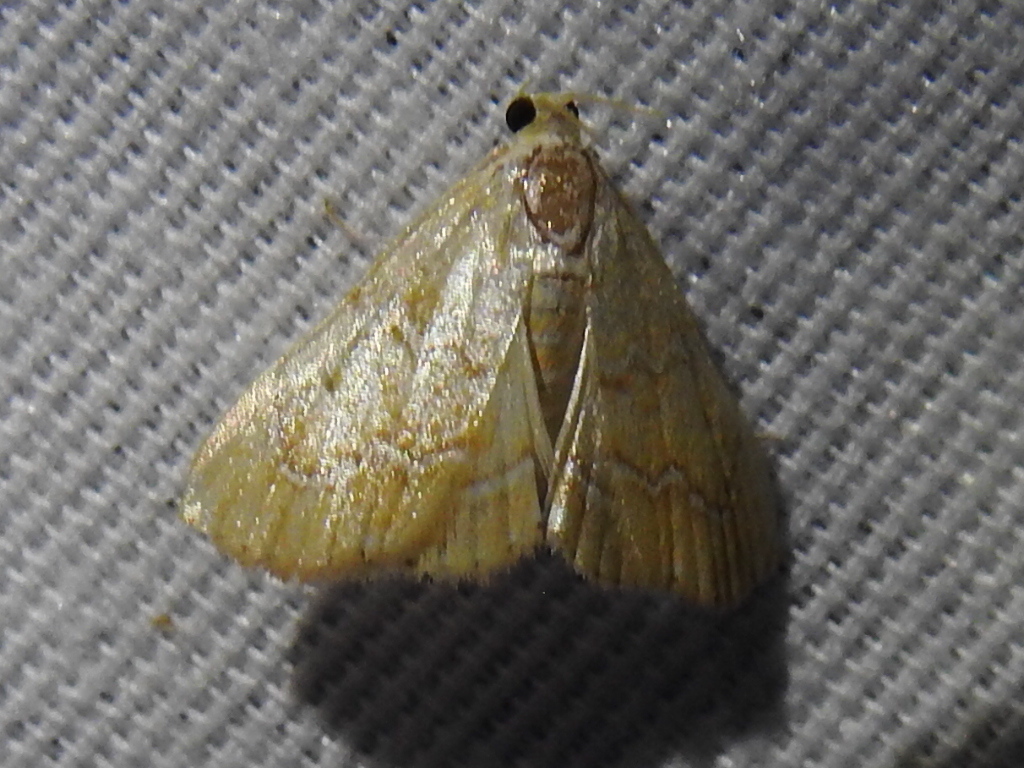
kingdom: Animalia
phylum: Arthropoda
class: Insecta
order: Lepidoptera
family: Crambidae
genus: Glaphyria
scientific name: Glaphyria sesquistrialis
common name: White-roped glaphyria
